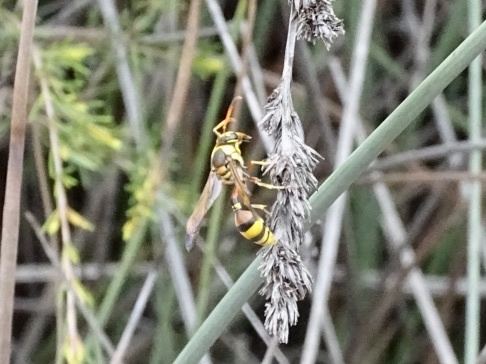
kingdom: Animalia
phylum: Arthropoda
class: Insecta
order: Hymenoptera
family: Eumenidae
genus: Delta
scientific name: Delta esuriens
